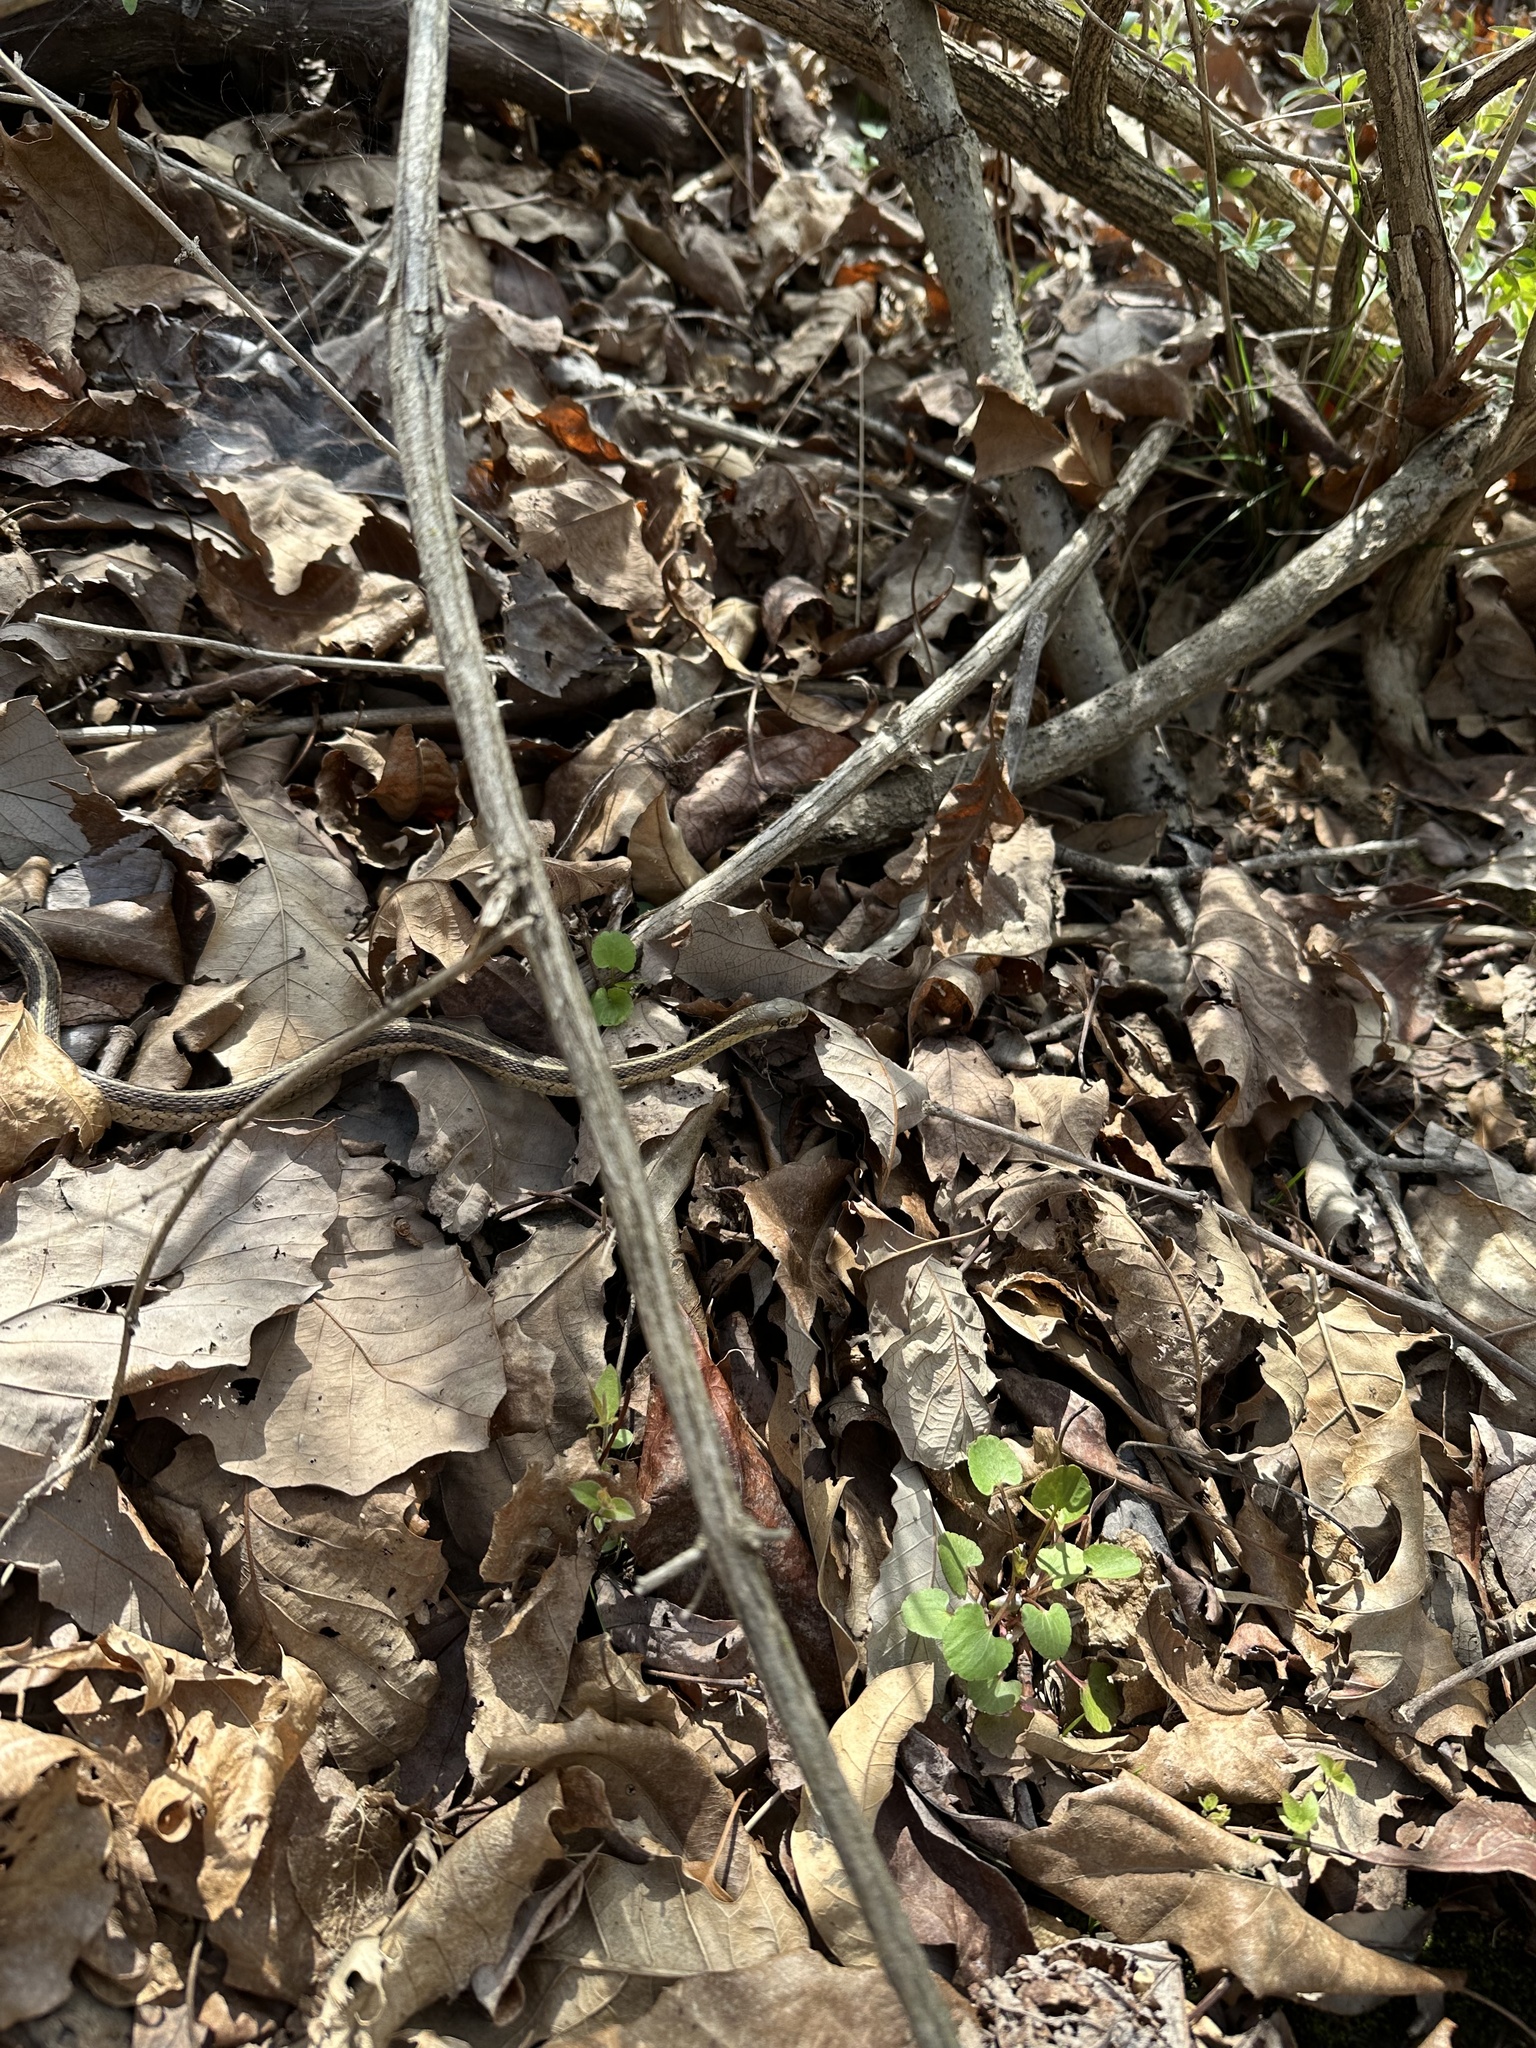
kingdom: Animalia
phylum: Chordata
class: Squamata
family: Colubridae
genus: Thamnophis
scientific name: Thamnophis sirtalis
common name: Common garter snake
